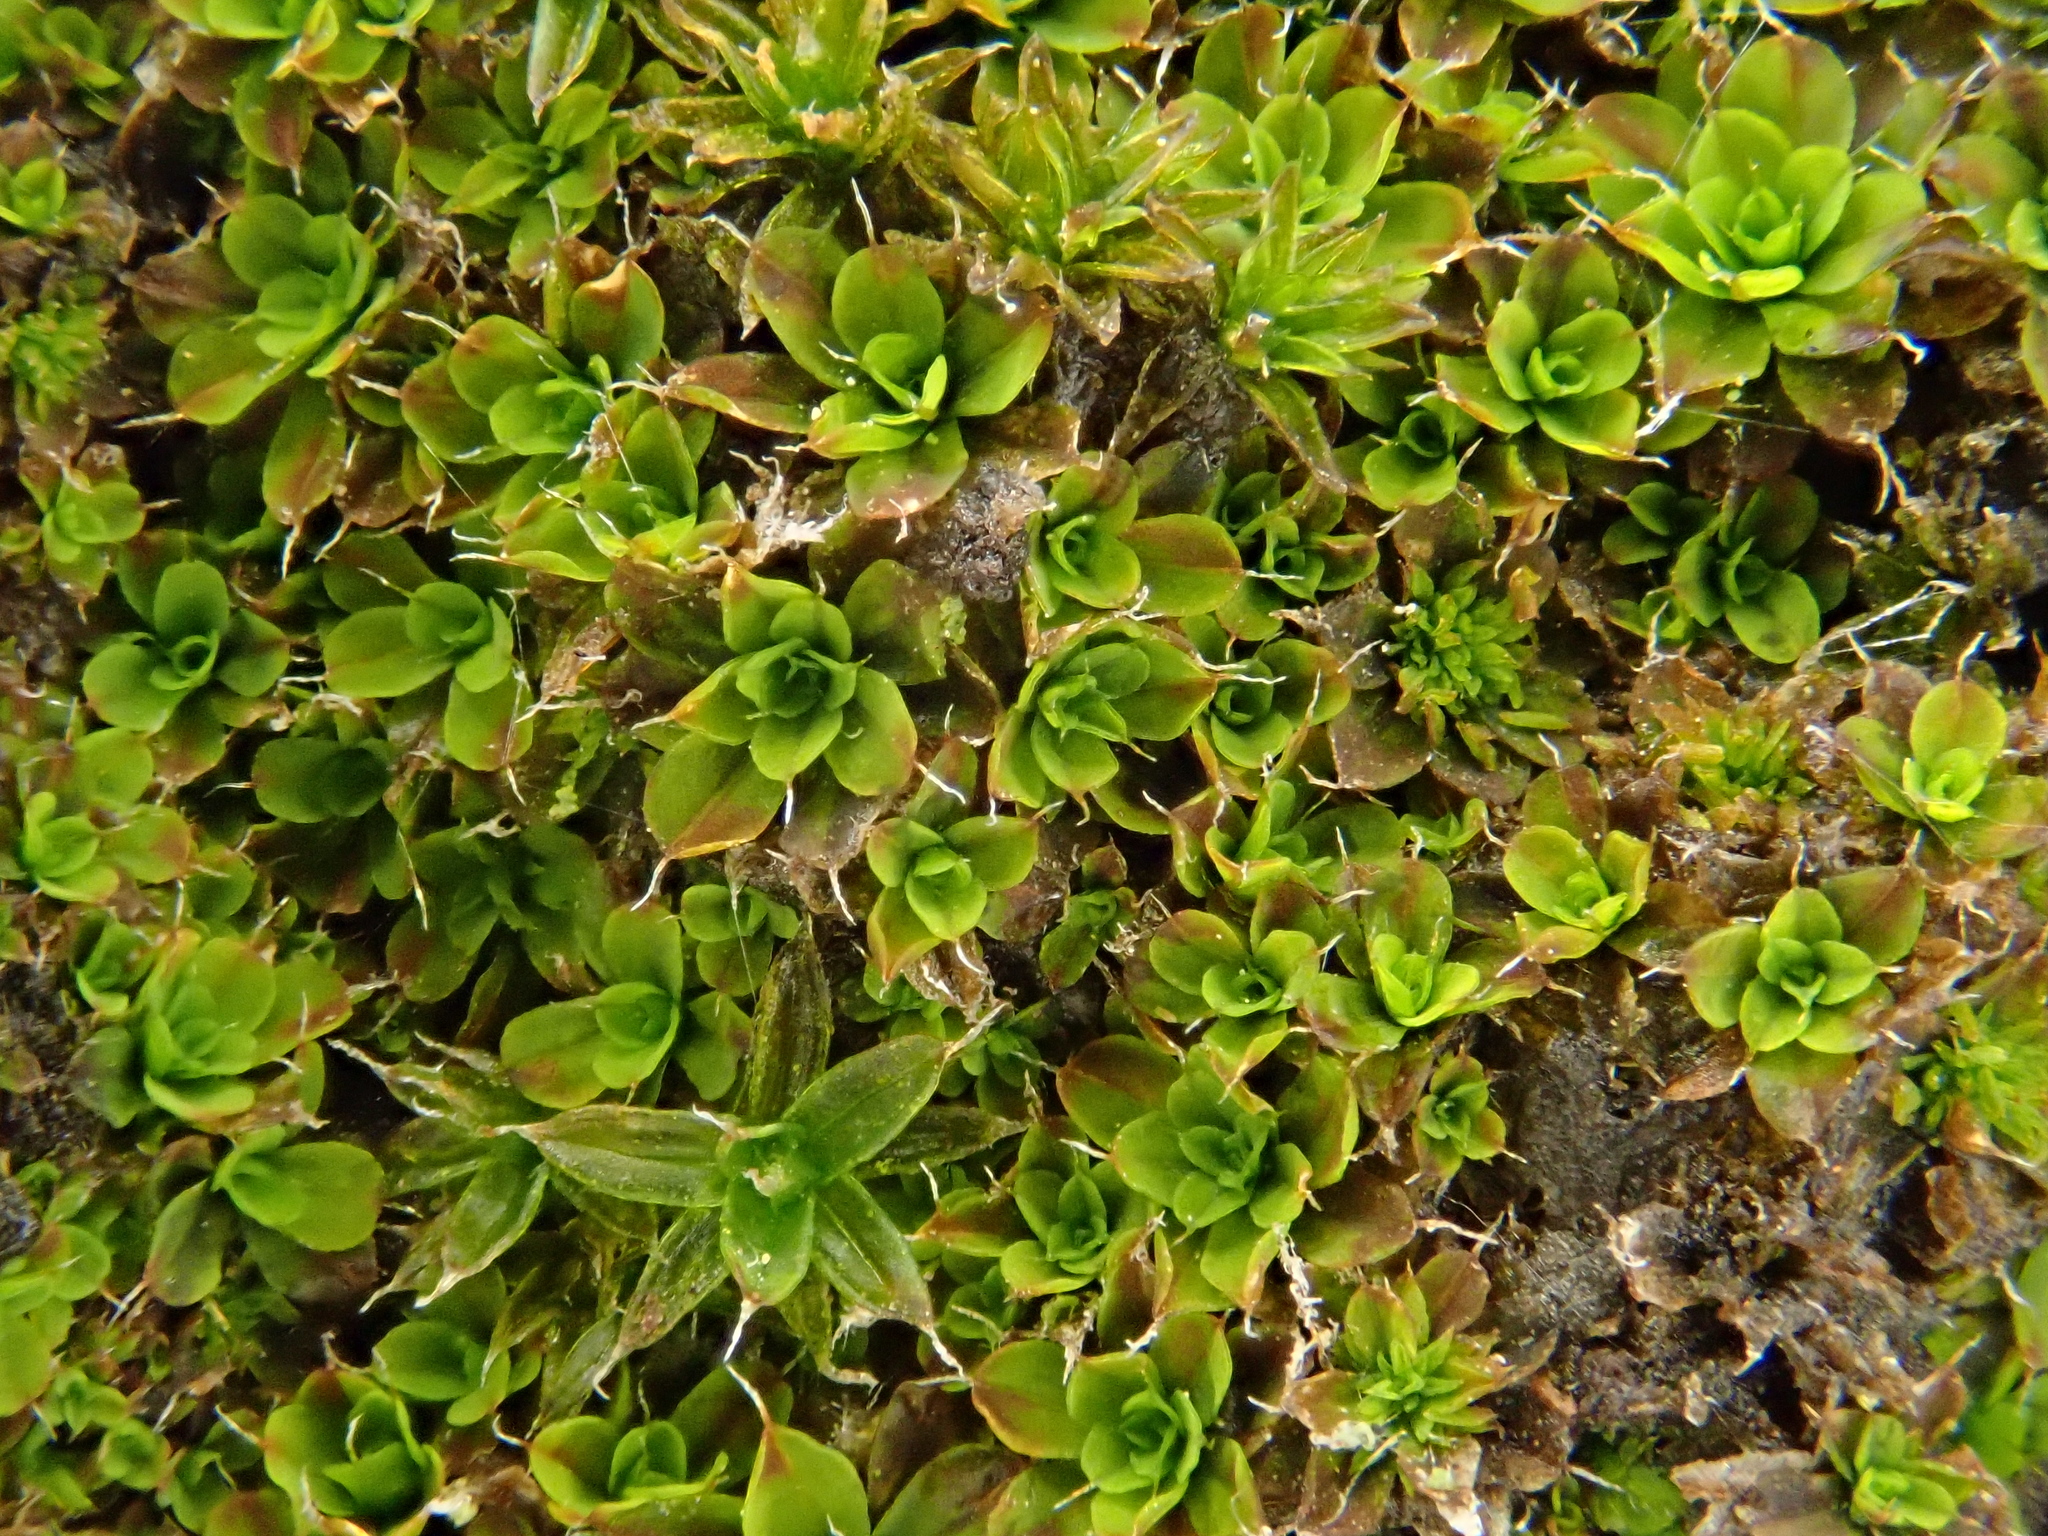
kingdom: Plantae
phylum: Bryophyta
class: Bryopsida
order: Pottiales
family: Pottiaceae
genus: Syntrichia
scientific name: Syntrichia pagorum
